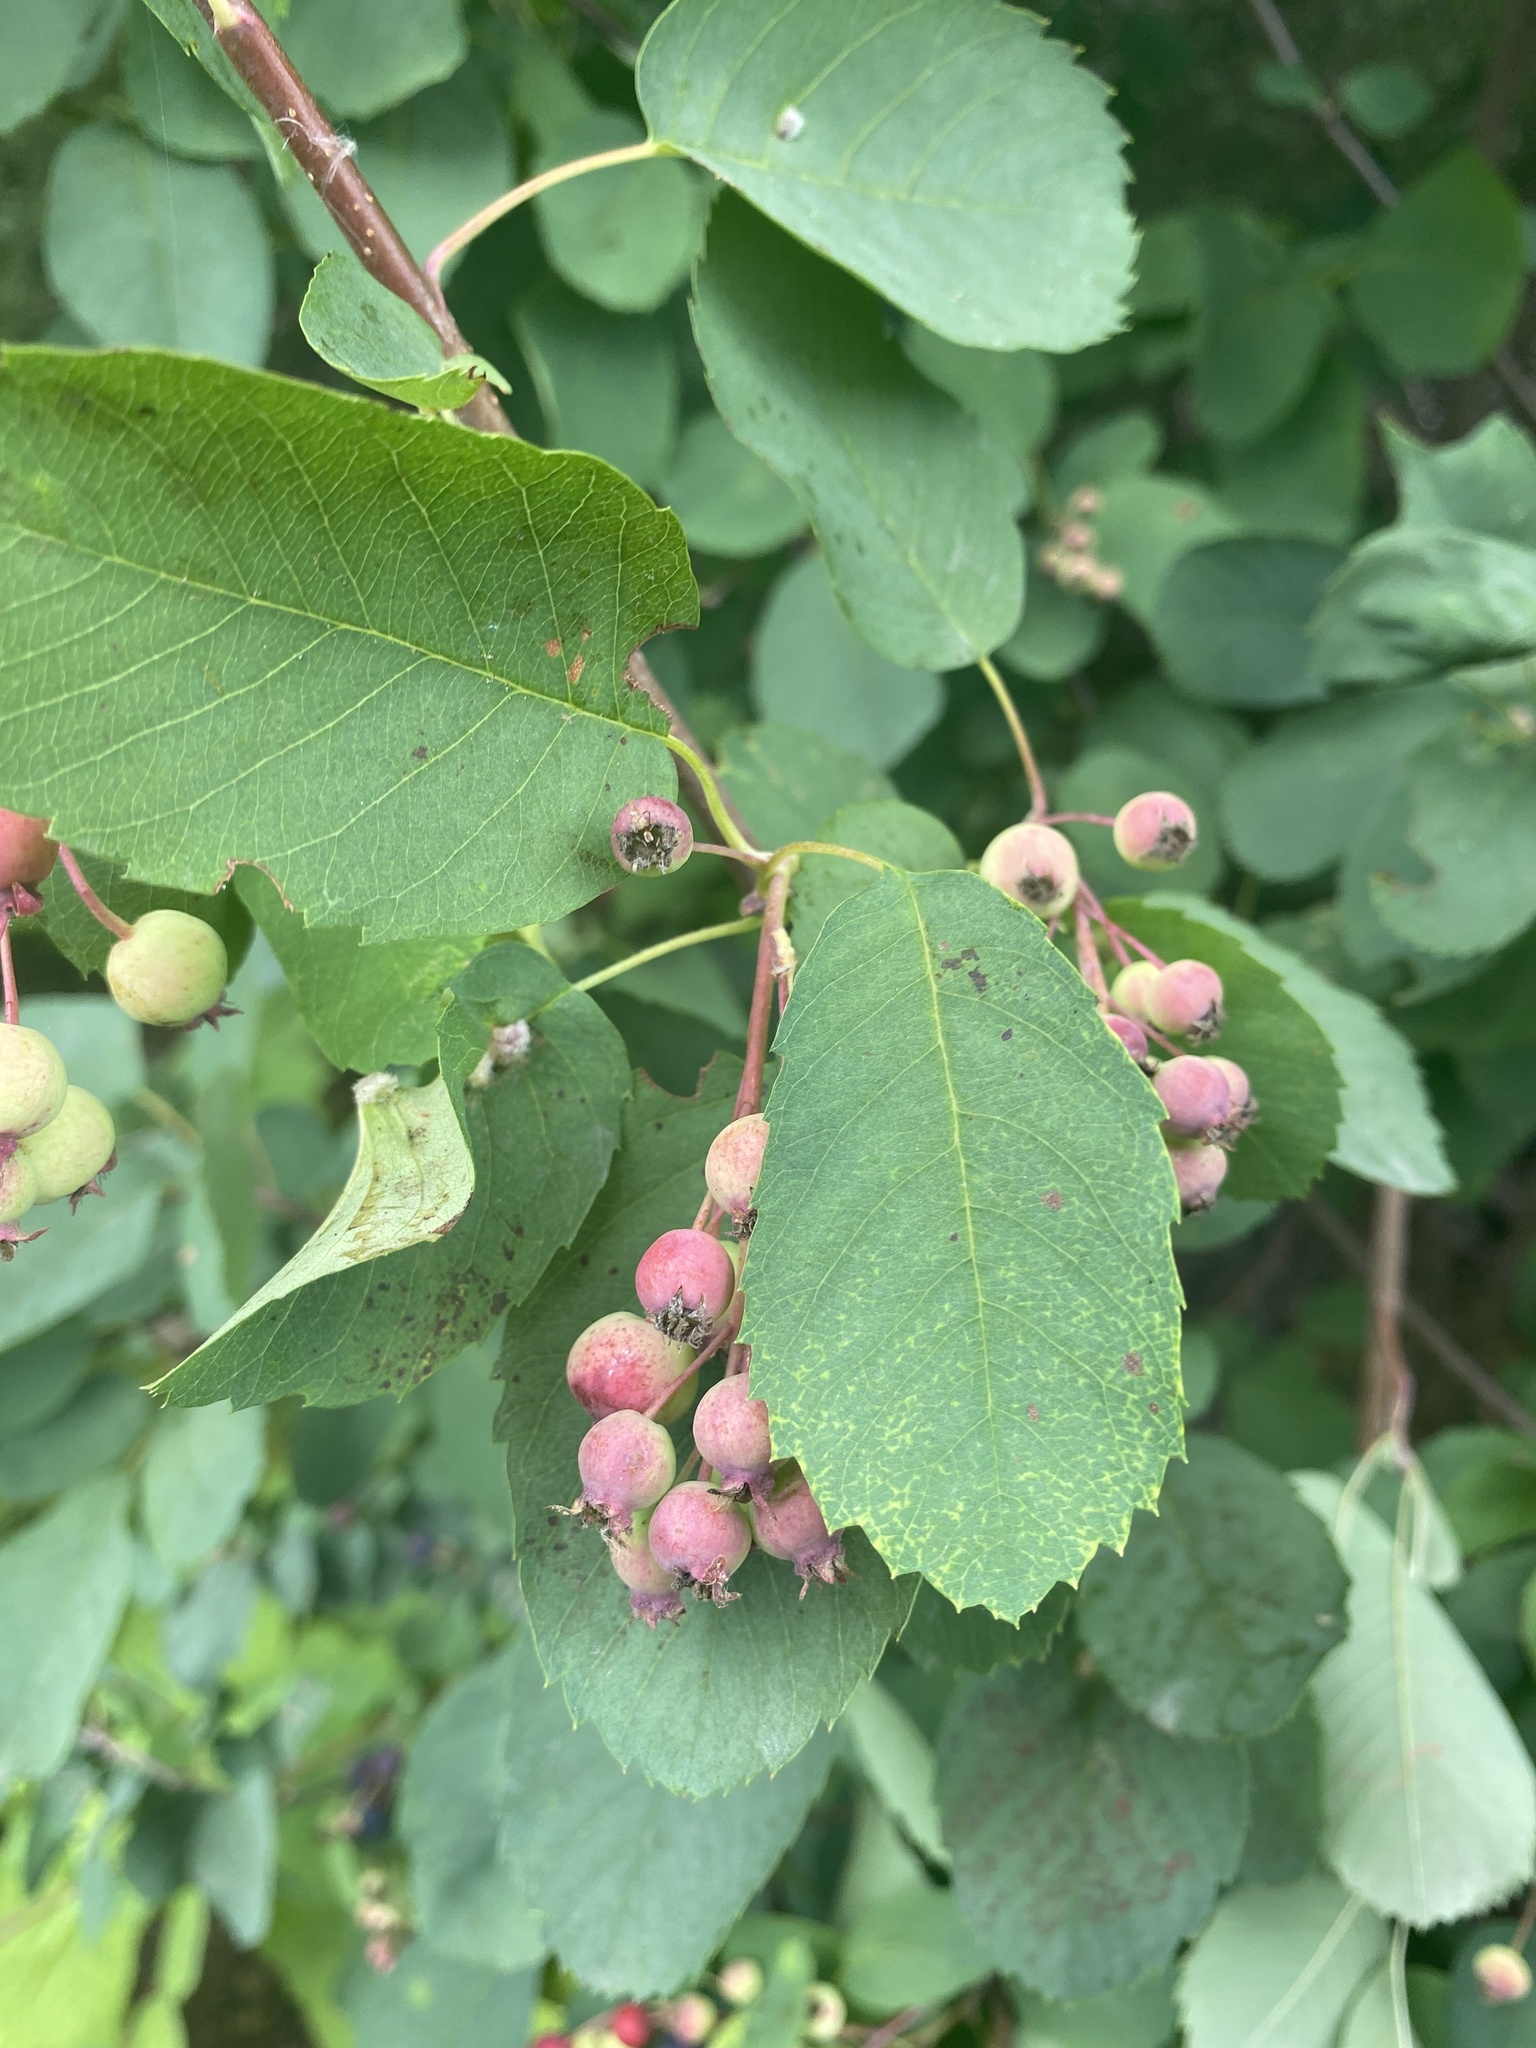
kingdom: Plantae
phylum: Tracheophyta
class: Magnoliopsida
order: Rosales
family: Rosaceae
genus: Amelanchier
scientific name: Amelanchier alnifolia
